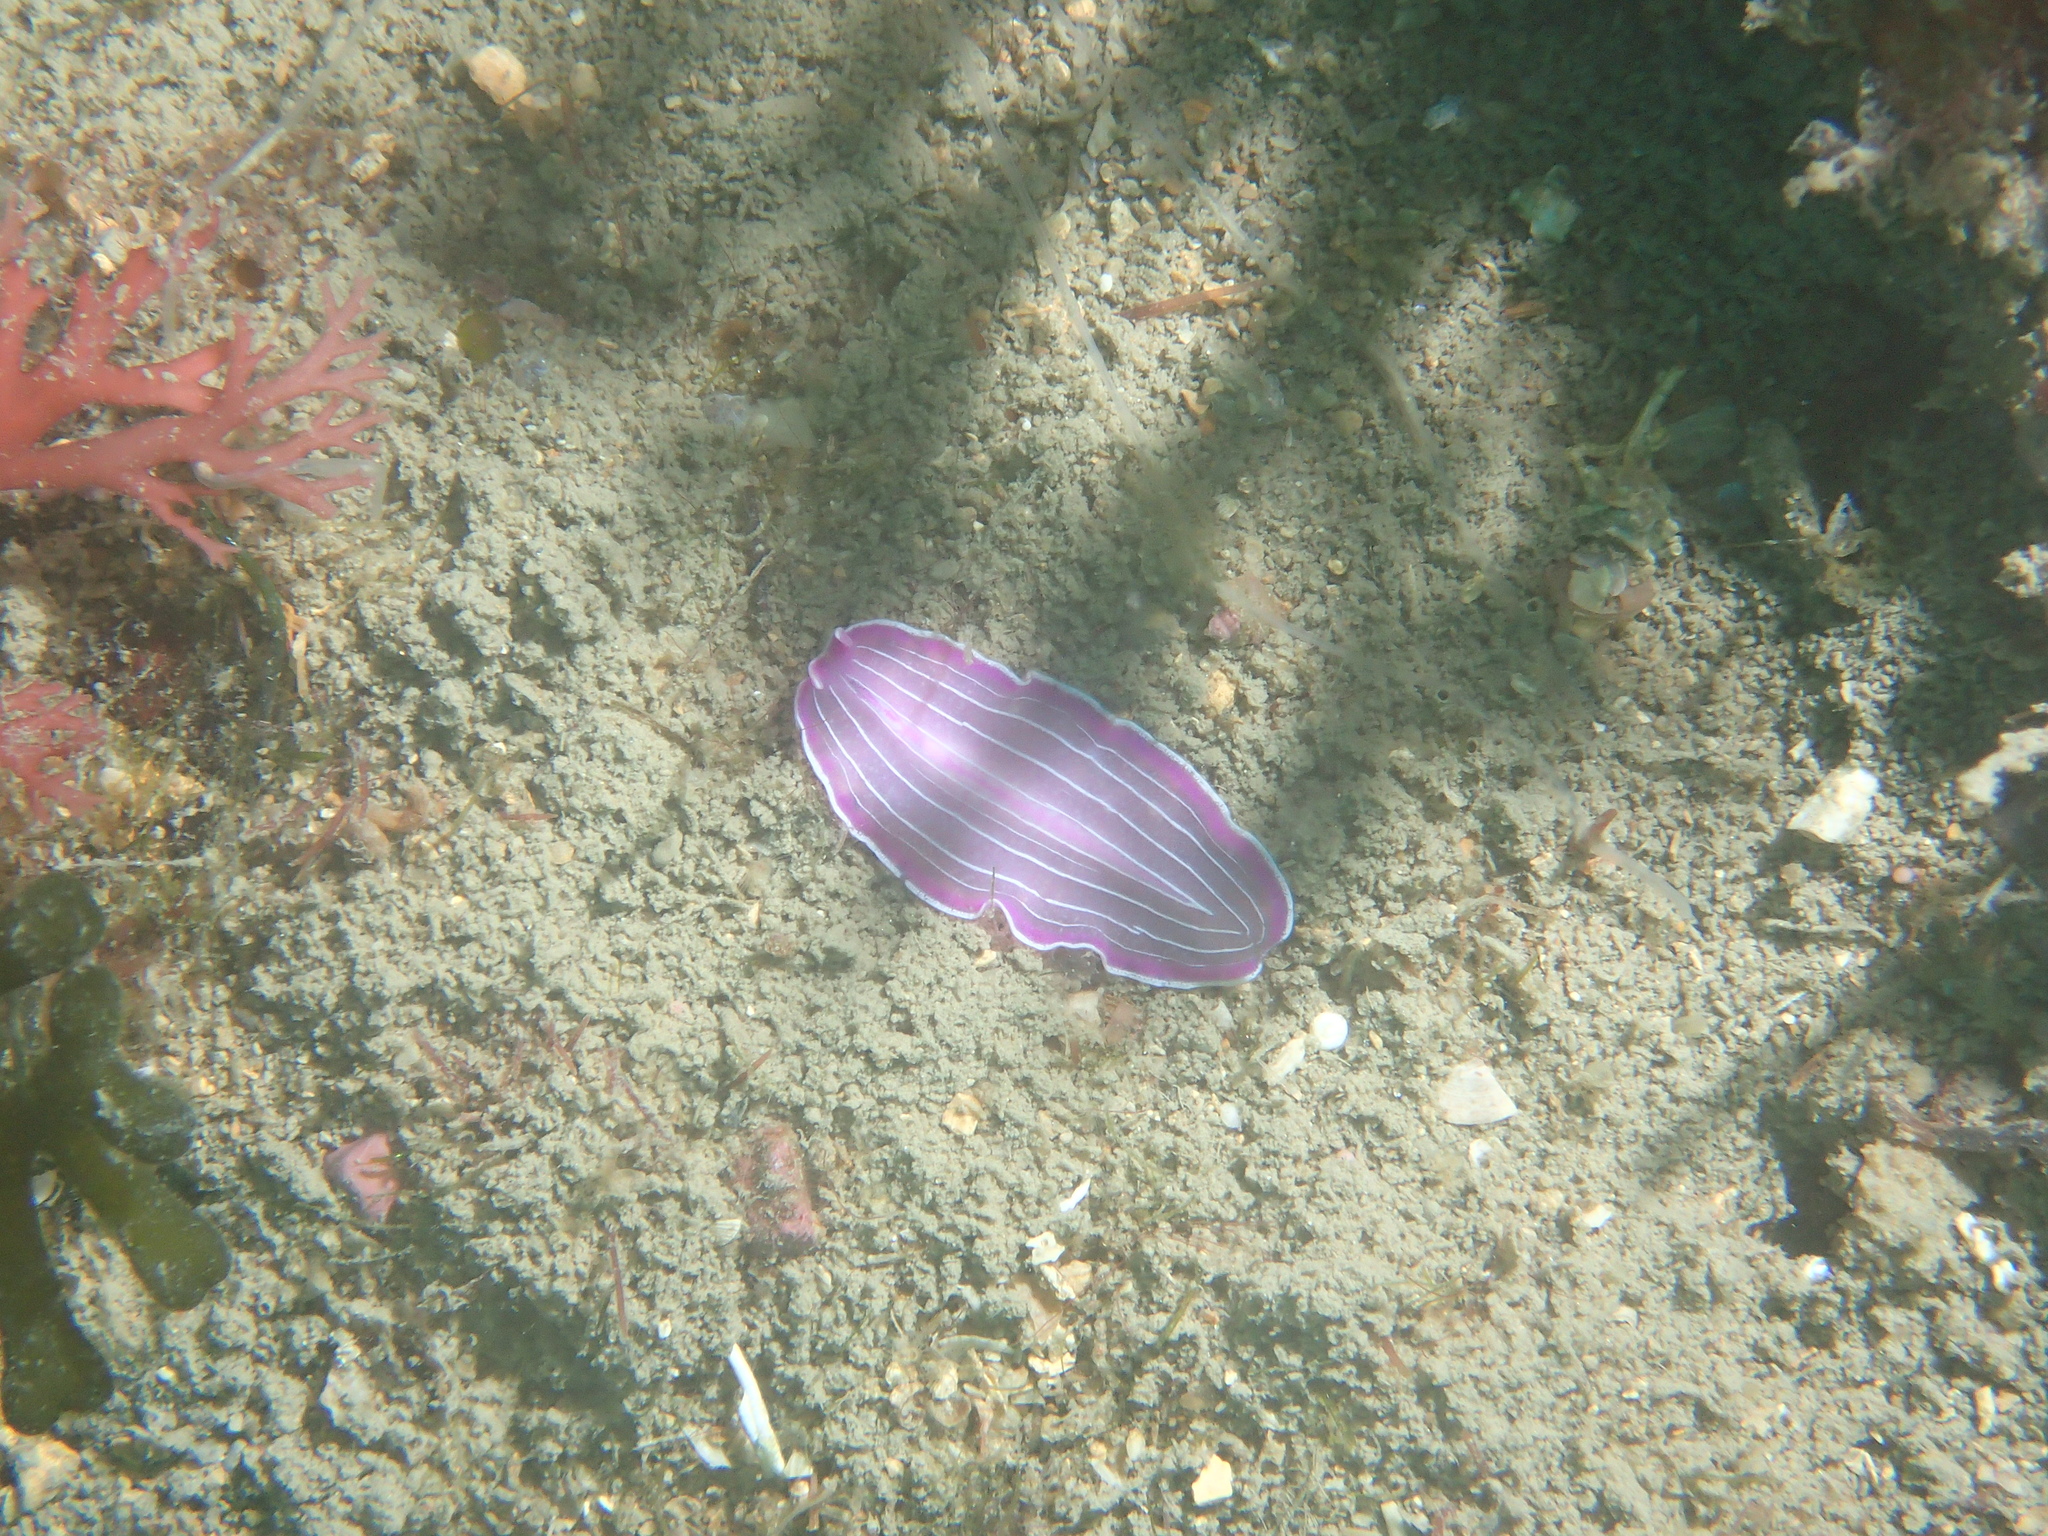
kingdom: Animalia
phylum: Platyhelminthes
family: Euryleptidae
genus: Prostheceraeus
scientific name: Prostheceraeus roseus
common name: Pink flatworm
